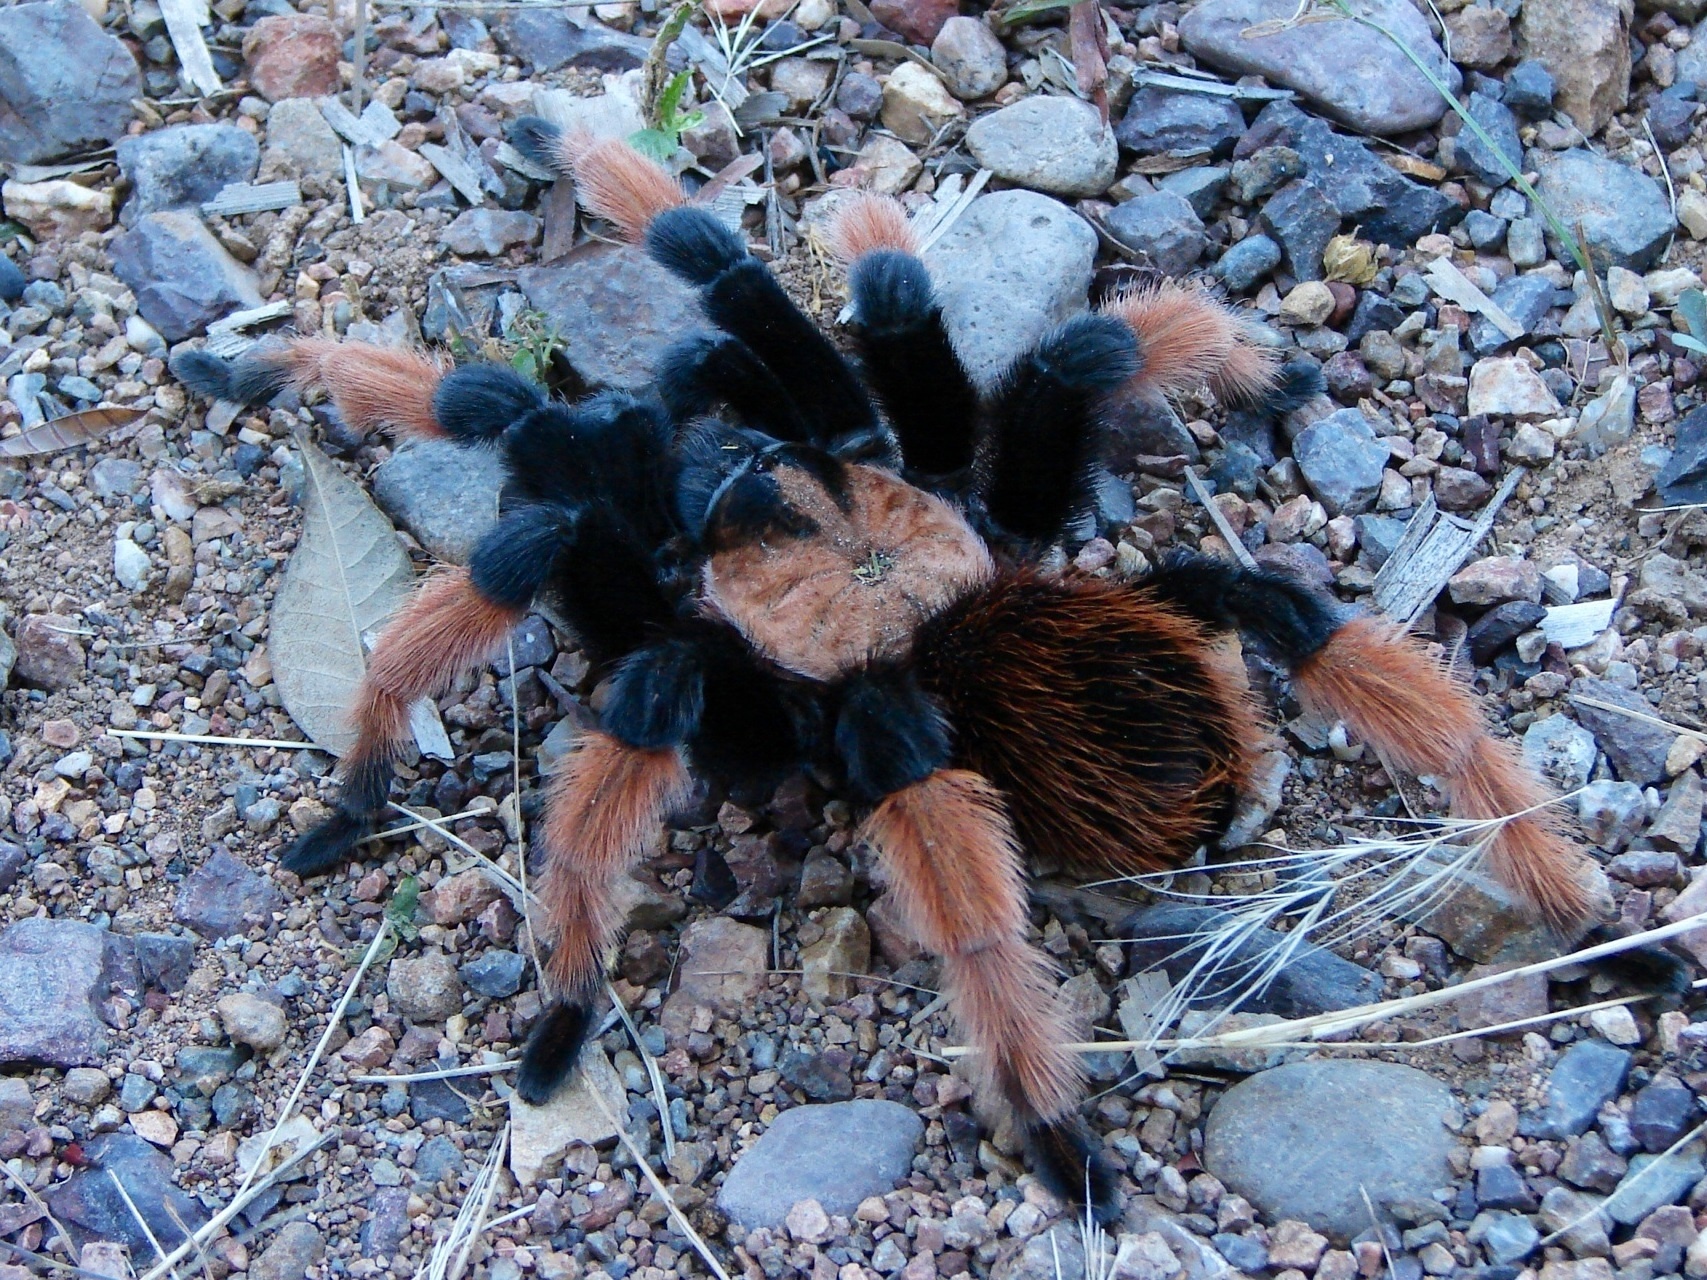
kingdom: Animalia
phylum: Arthropoda
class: Arachnida
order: Araneae
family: Theraphosidae
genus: Brachypelma
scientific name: Brachypelma emilia
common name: Mexican redleg
